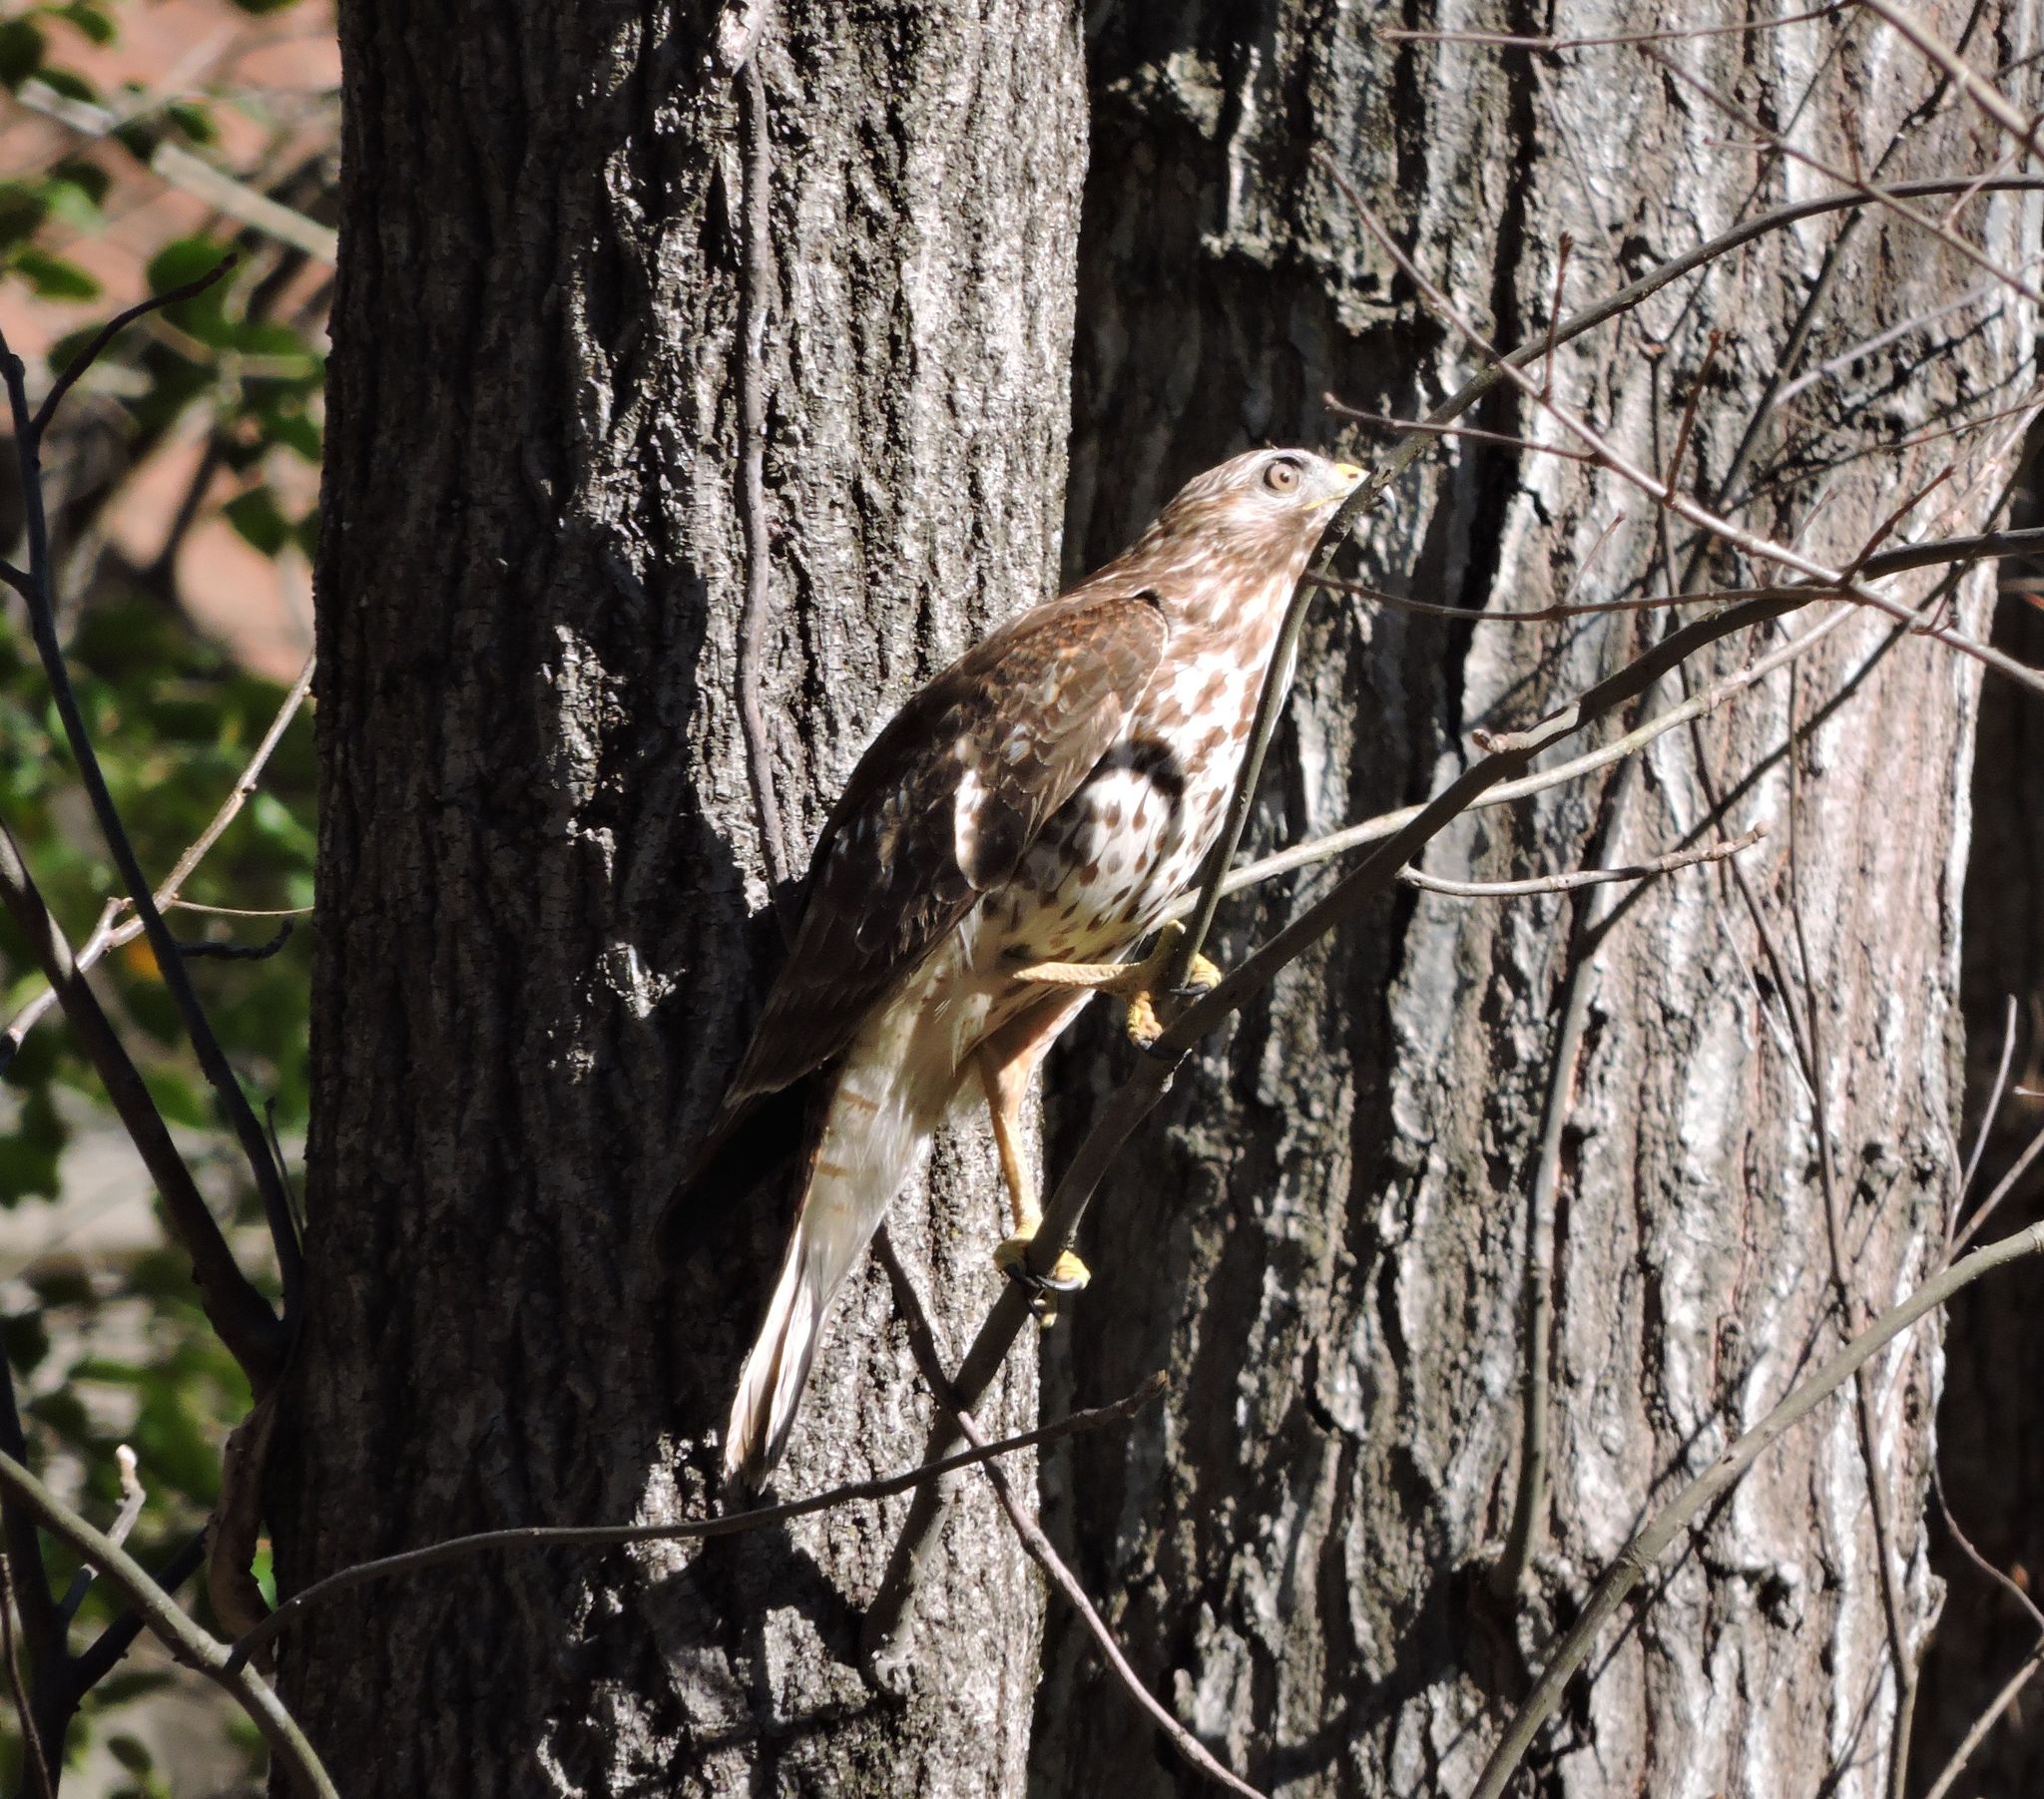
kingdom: Animalia
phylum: Chordata
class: Aves
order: Accipitriformes
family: Accipitridae
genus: Buteo
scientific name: Buteo lineatus
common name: Red-shouldered hawk
